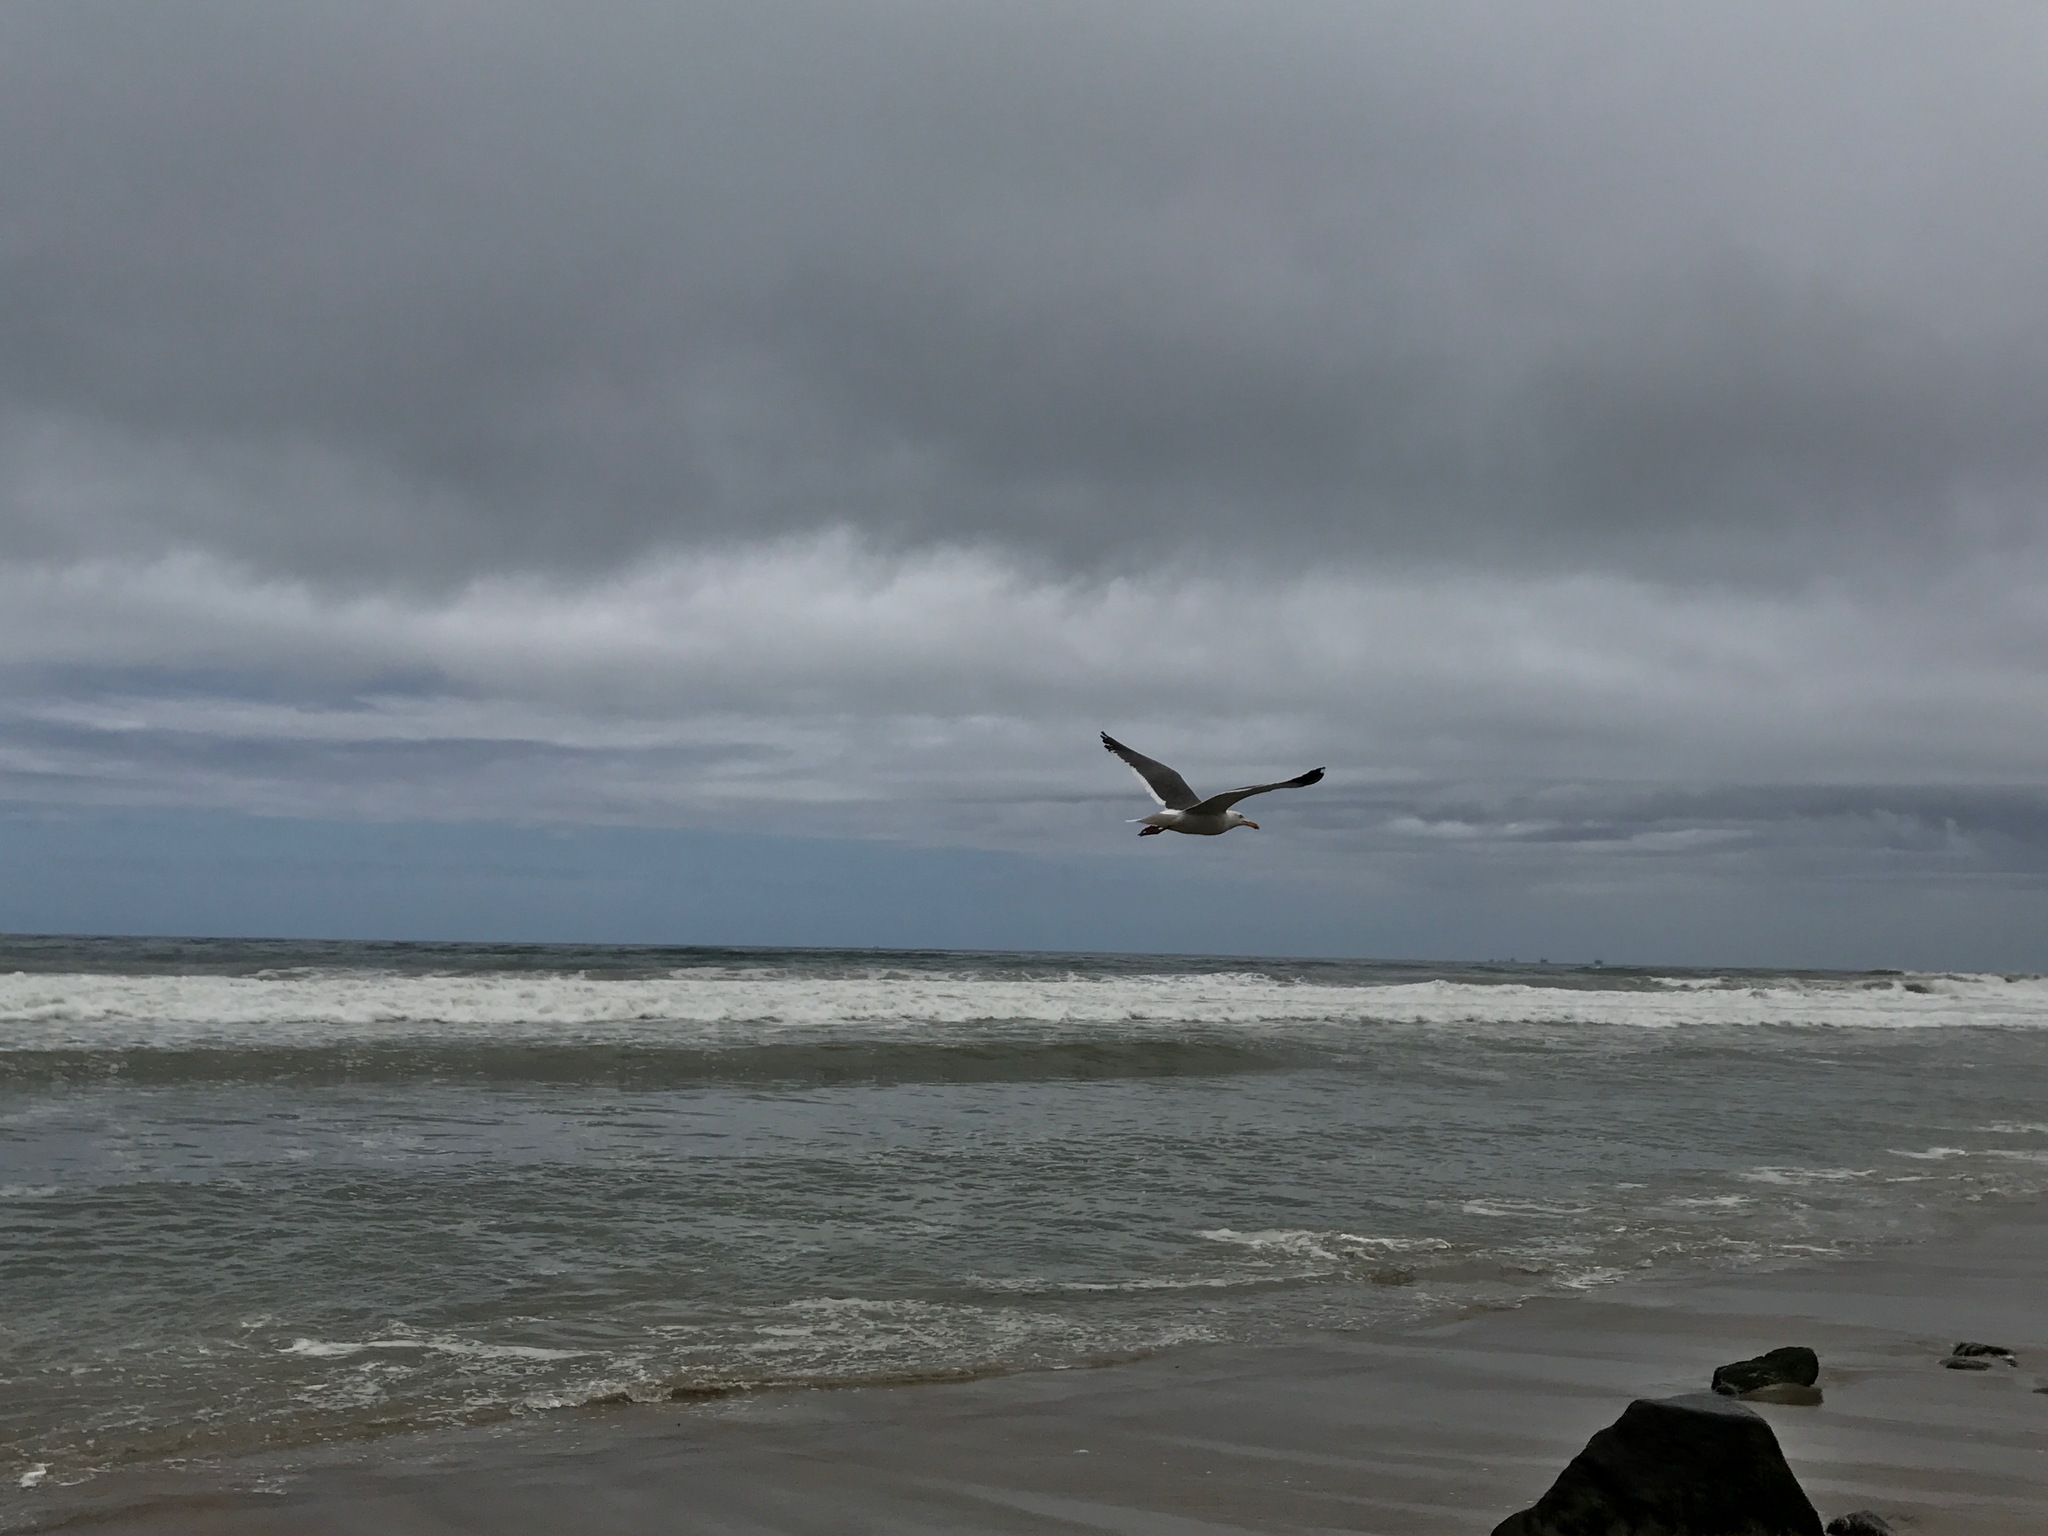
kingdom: Animalia
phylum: Chordata
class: Aves
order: Charadriiformes
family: Laridae
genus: Larus
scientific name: Larus occidentalis
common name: Western gull
